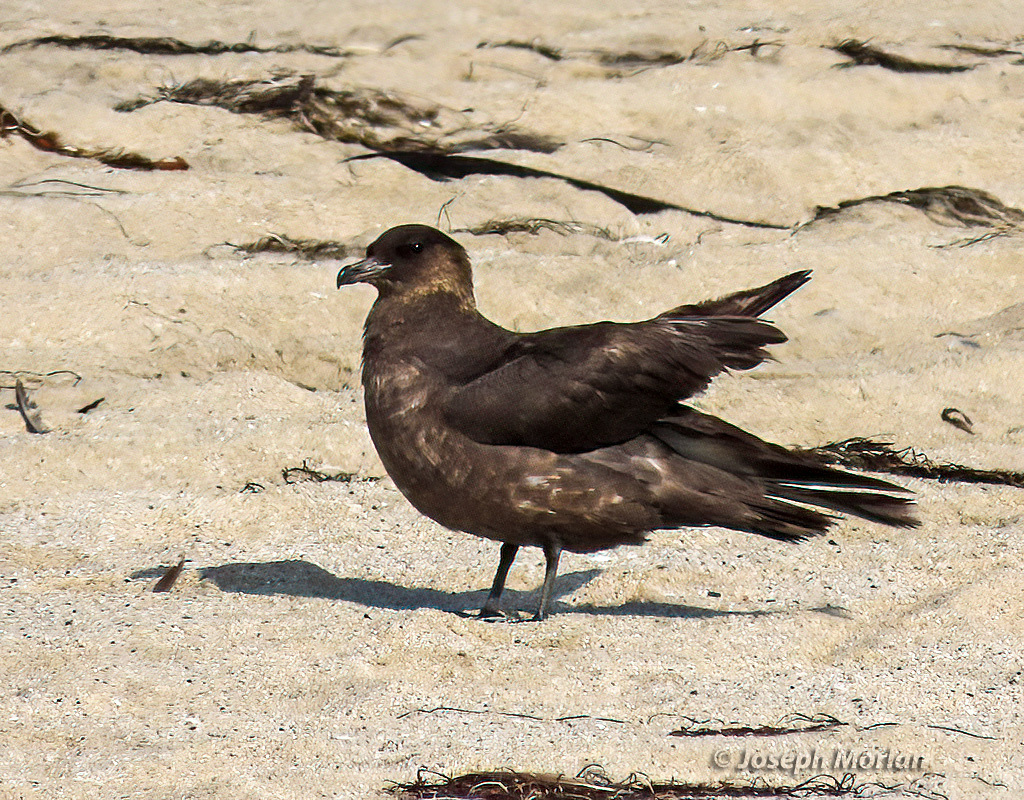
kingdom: Animalia
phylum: Chordata
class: Aves
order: Charadriiformes
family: Stercorariidae
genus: Stercorarius
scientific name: Stercorarius pomarinus
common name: Pomarine jaeger
